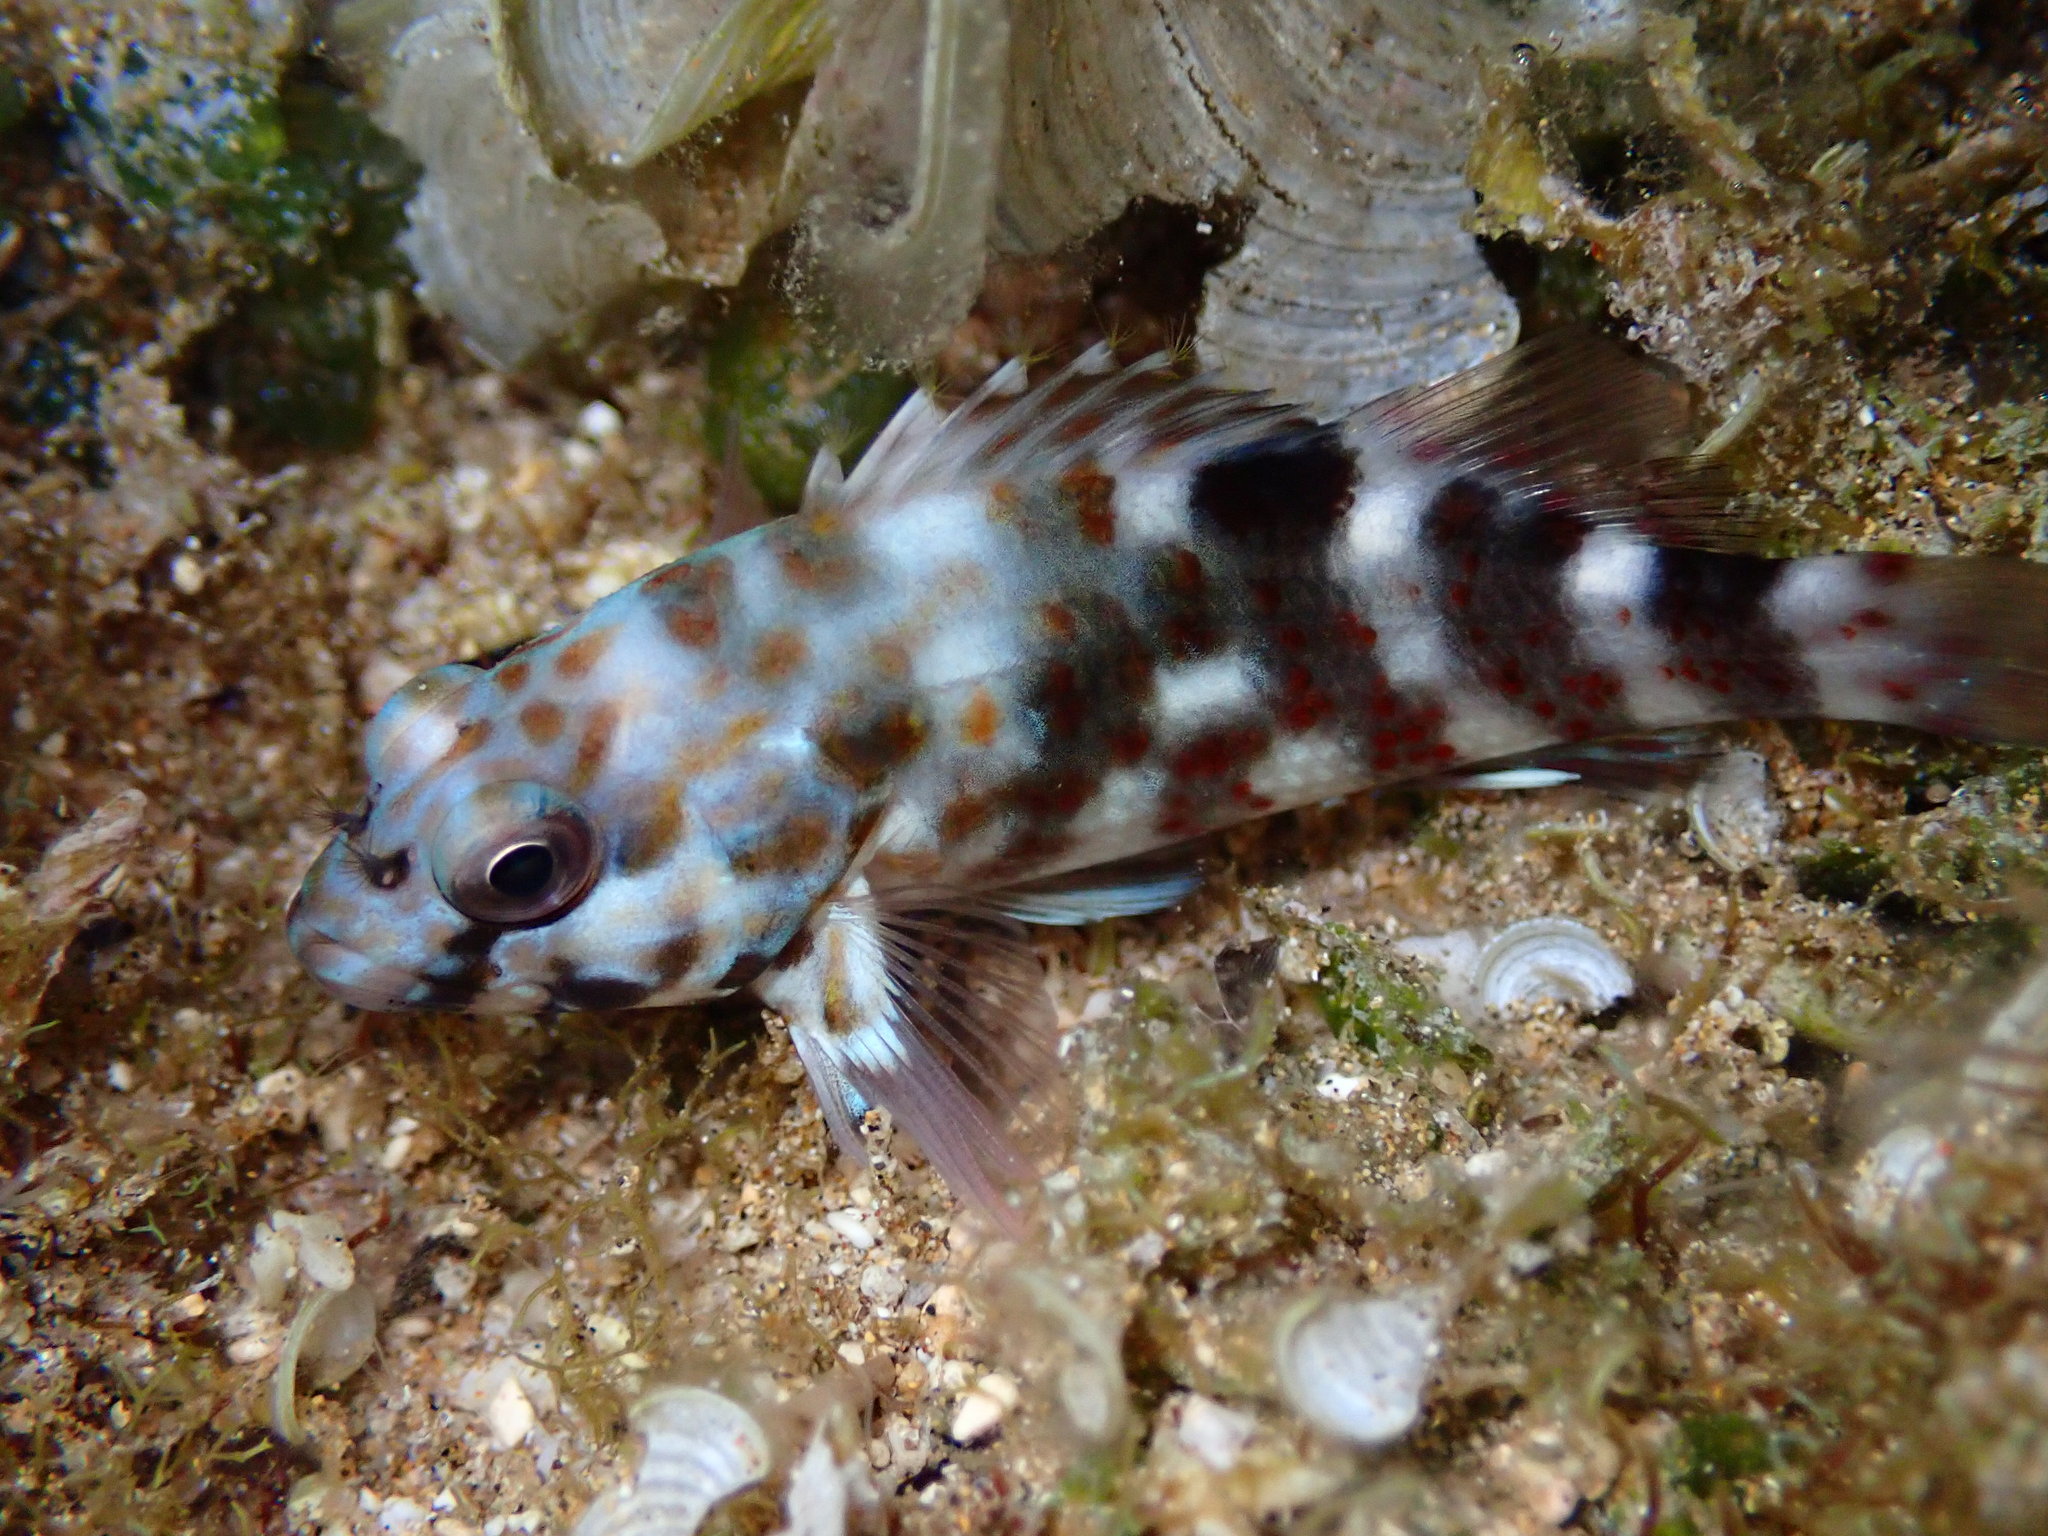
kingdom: Animalia
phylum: Chordata
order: Perciformes
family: Cirrhitidae
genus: Cirrhitus
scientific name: Cirrhitus pinnulatus
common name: Stocky hawkfish
